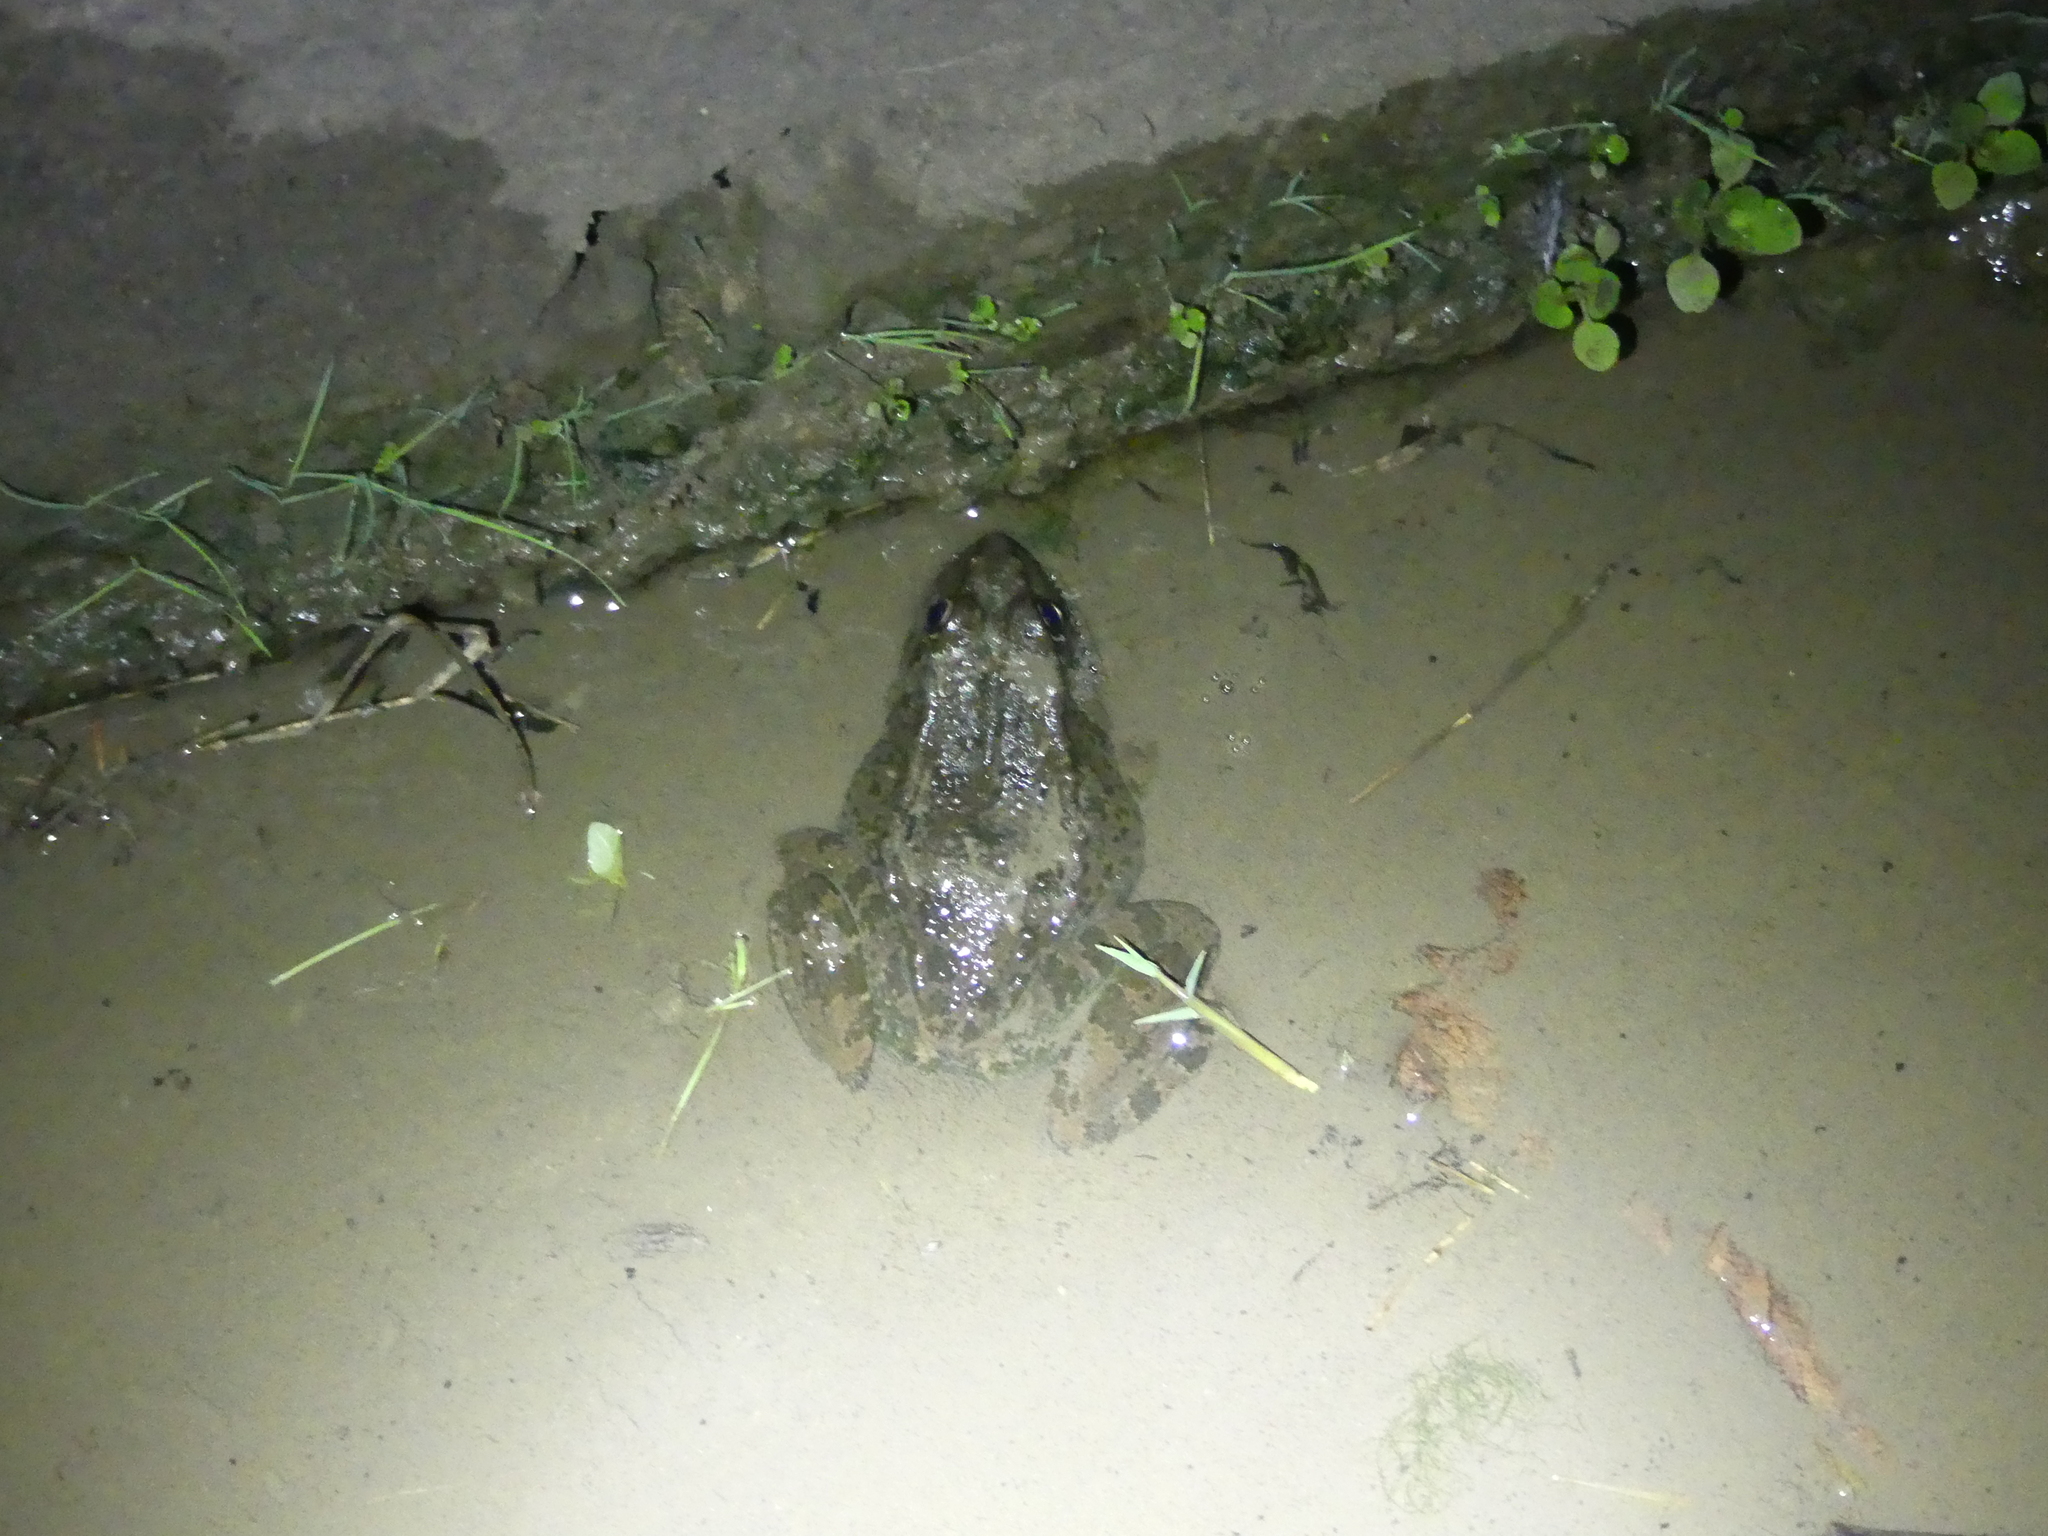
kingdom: Animalia
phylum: Chordata
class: Amphibia
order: Anura
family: Ranidae
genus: Pelophylax
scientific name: Pelophylax ridibundus
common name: Marsh frog
